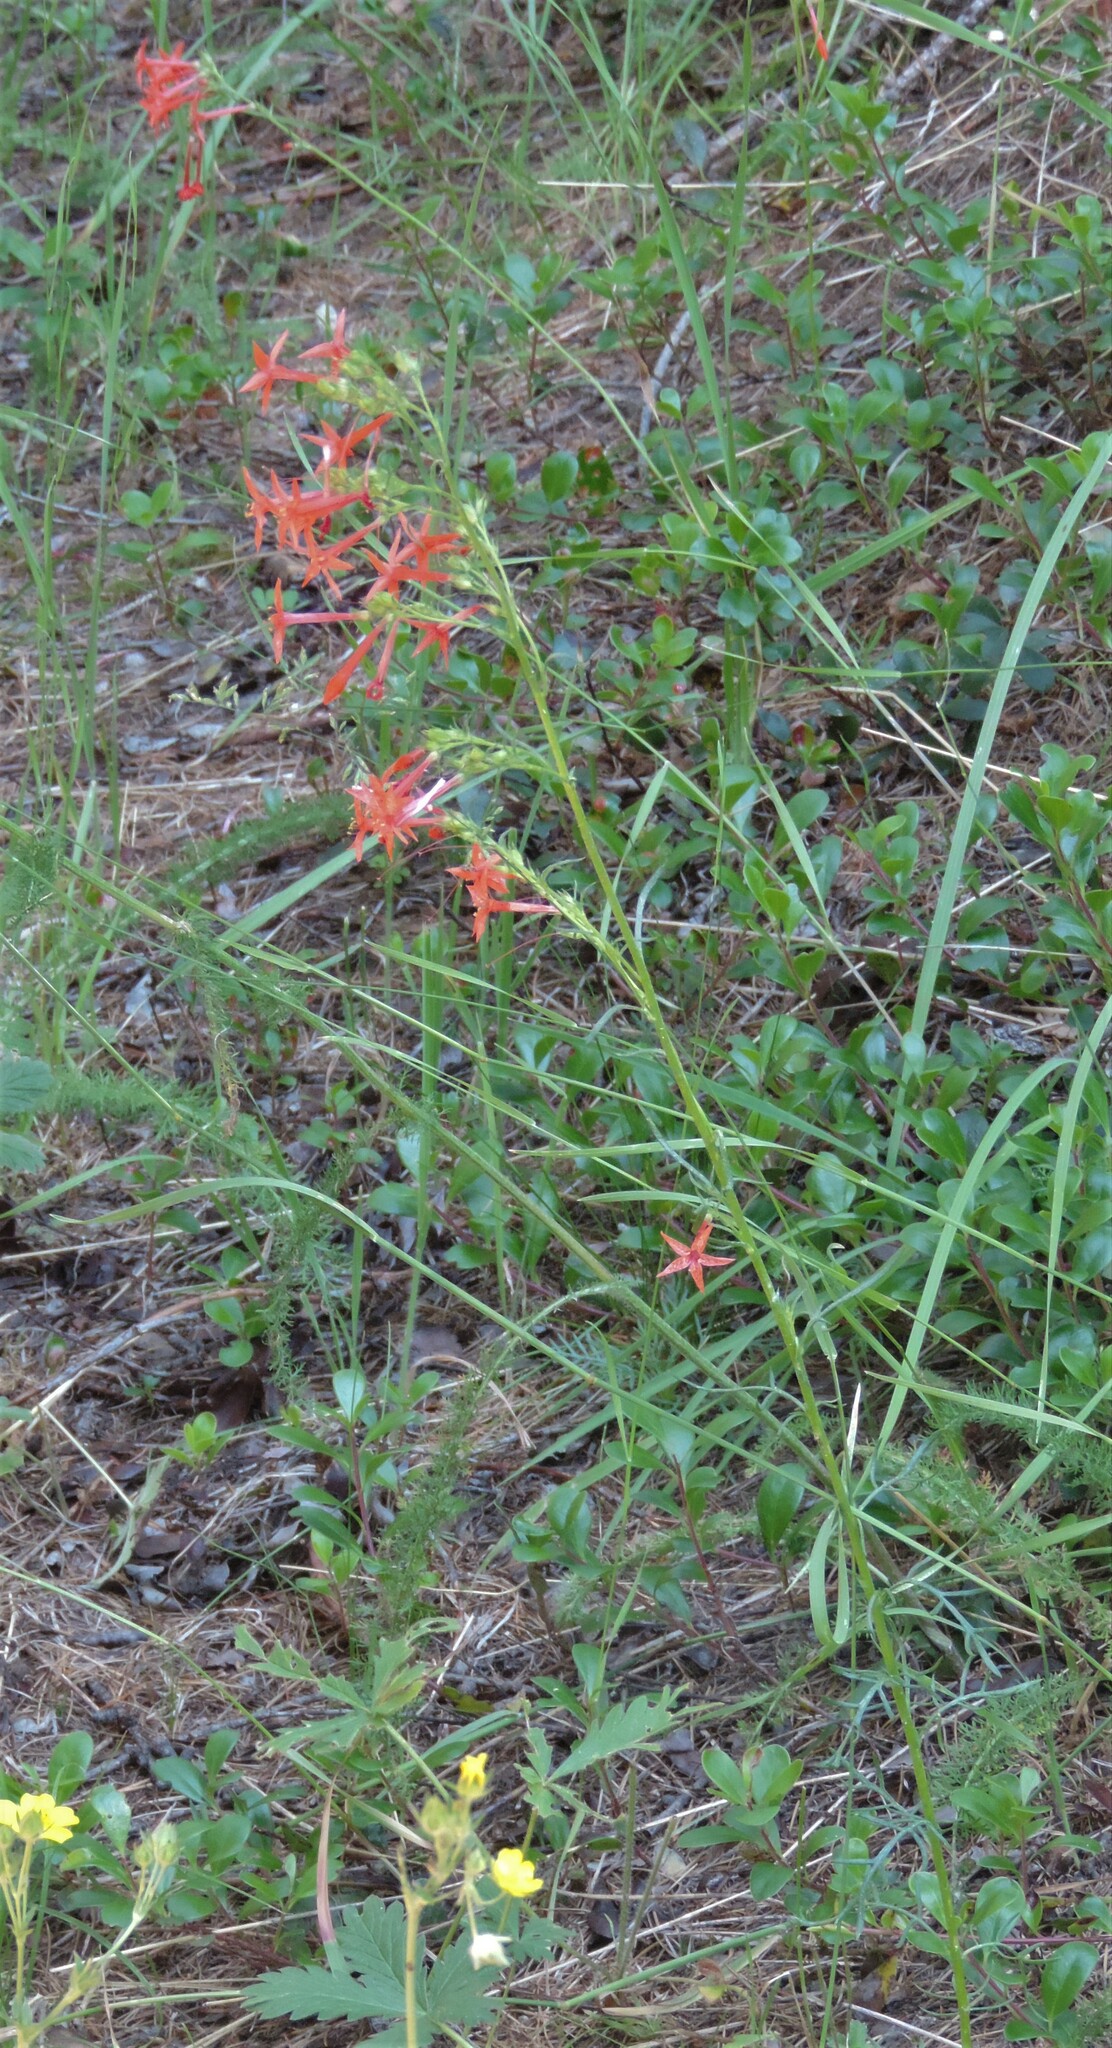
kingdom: Plantae
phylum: Tracheophyta
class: Magnoliopsida
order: Ericales
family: Polemoniaceae
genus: Ipomopsis
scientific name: Ipomopsis aggregata
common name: Scarlet gilia
